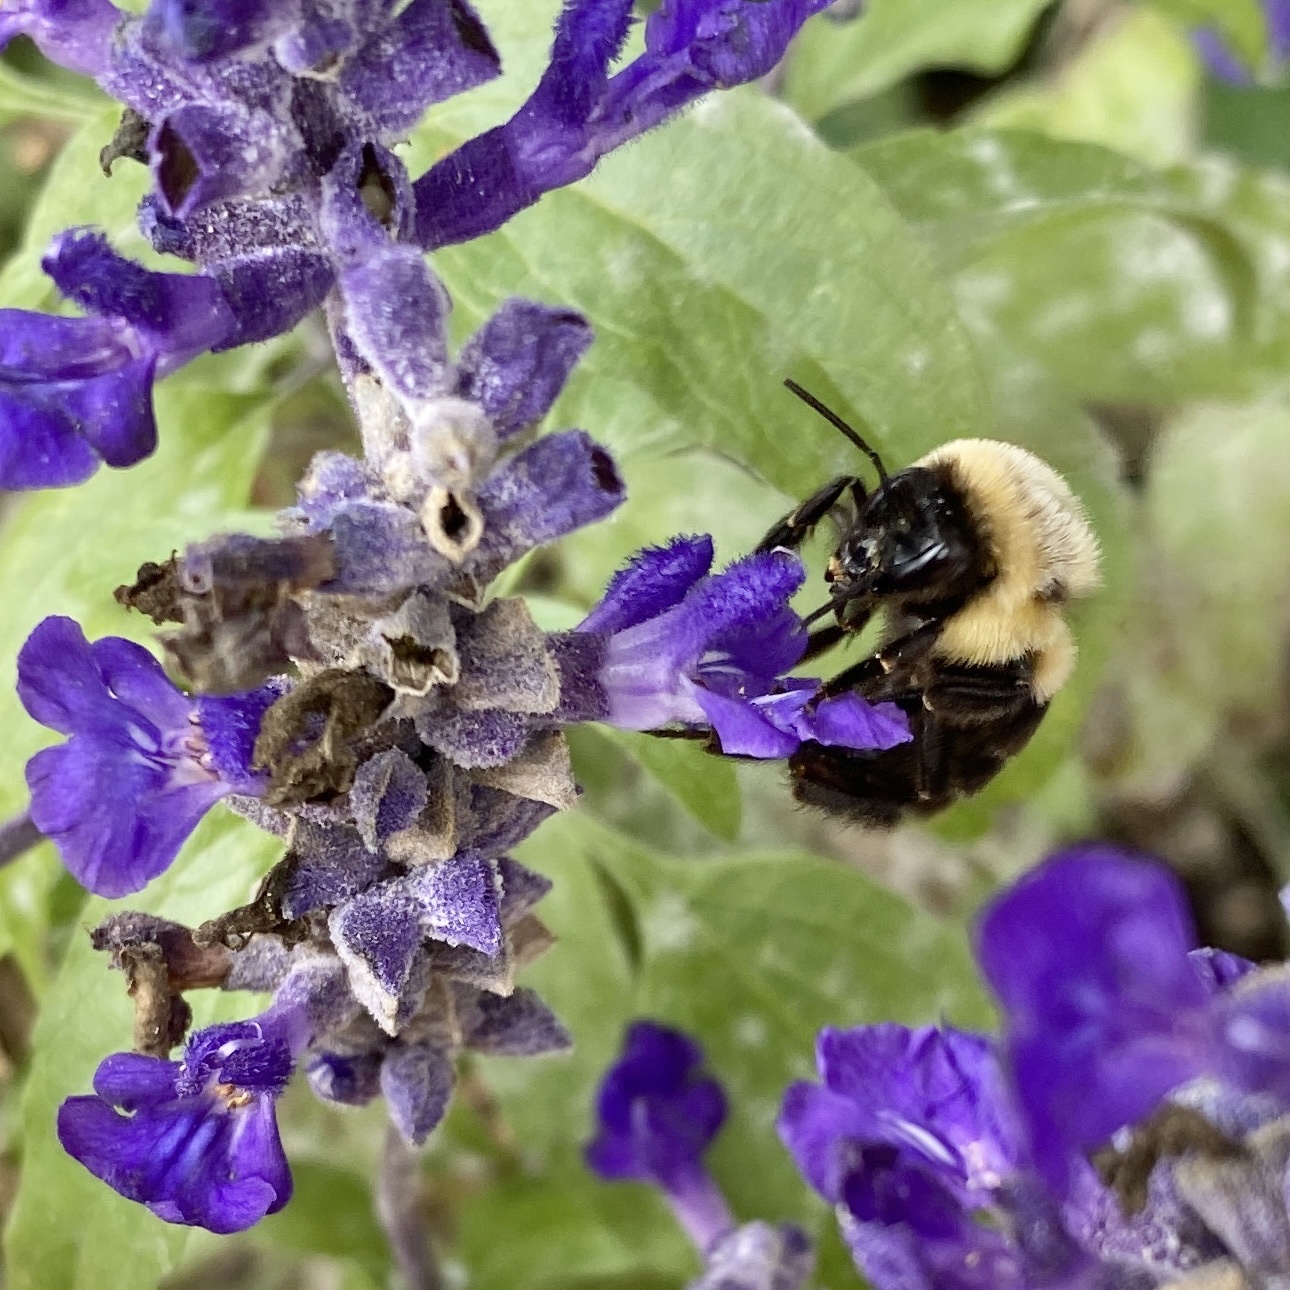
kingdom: Animalia
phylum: Arthropoda
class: Insecta
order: Hymenoptera
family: Apidae
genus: Bombus
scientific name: Bombus impatiens
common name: Common eastern bumble bee
